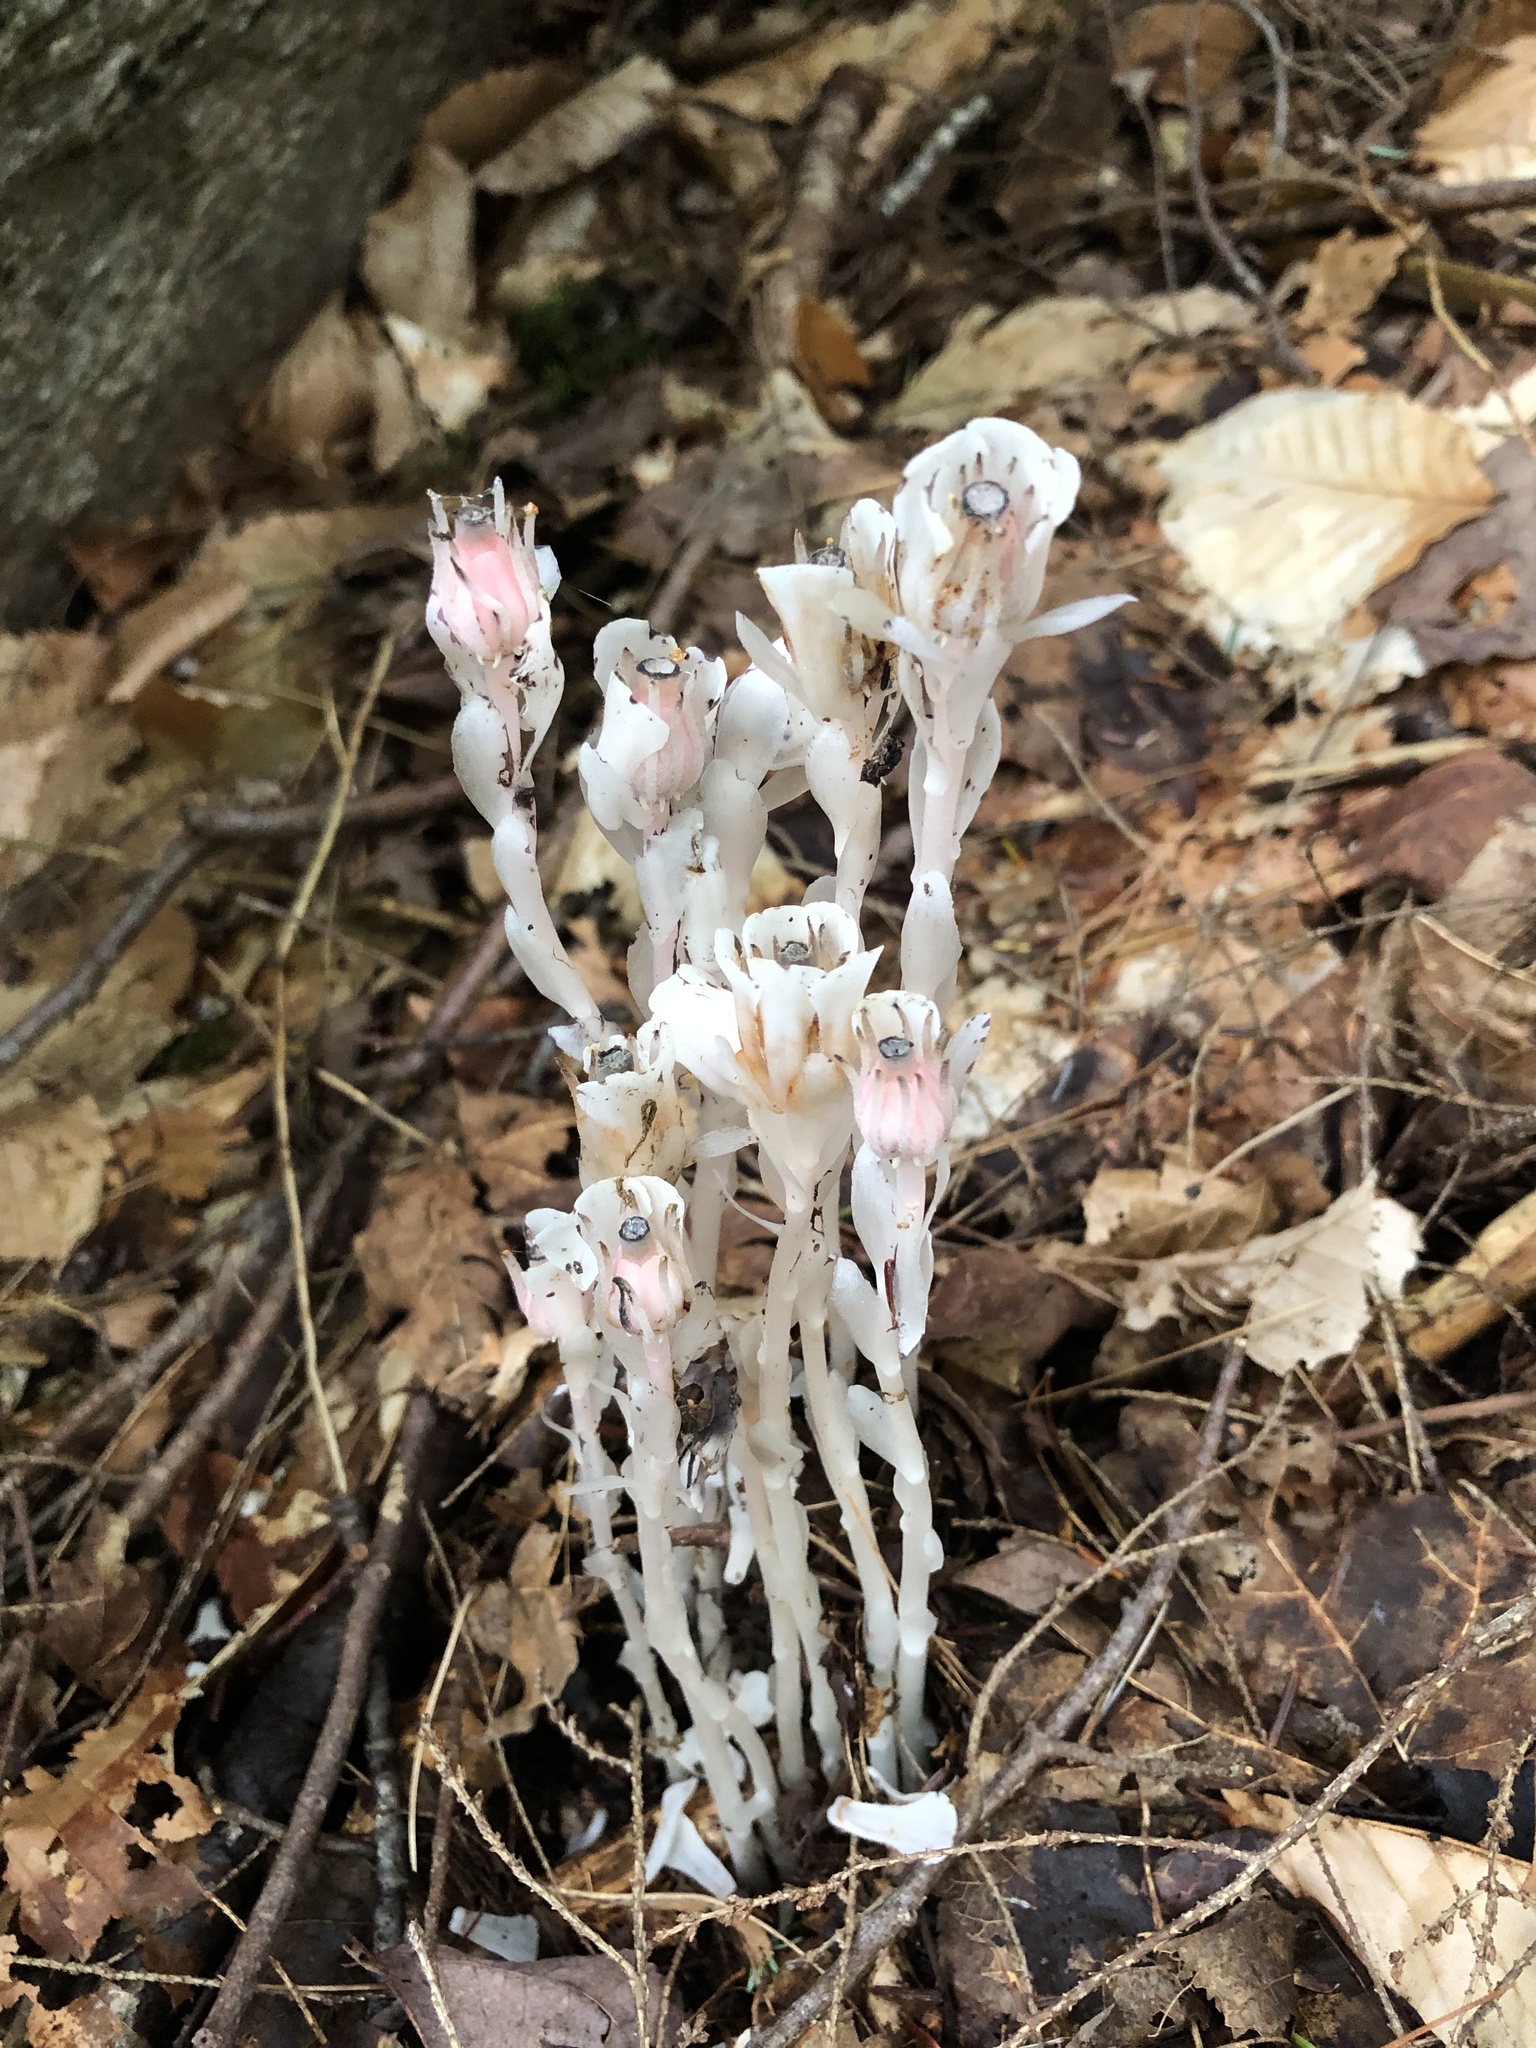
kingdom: Plantae
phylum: Tracheophyta
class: Magnoliopsida
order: Ericales
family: Ericaceae
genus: Monotropa
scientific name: Monotropa uniflora
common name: Convulsion root
